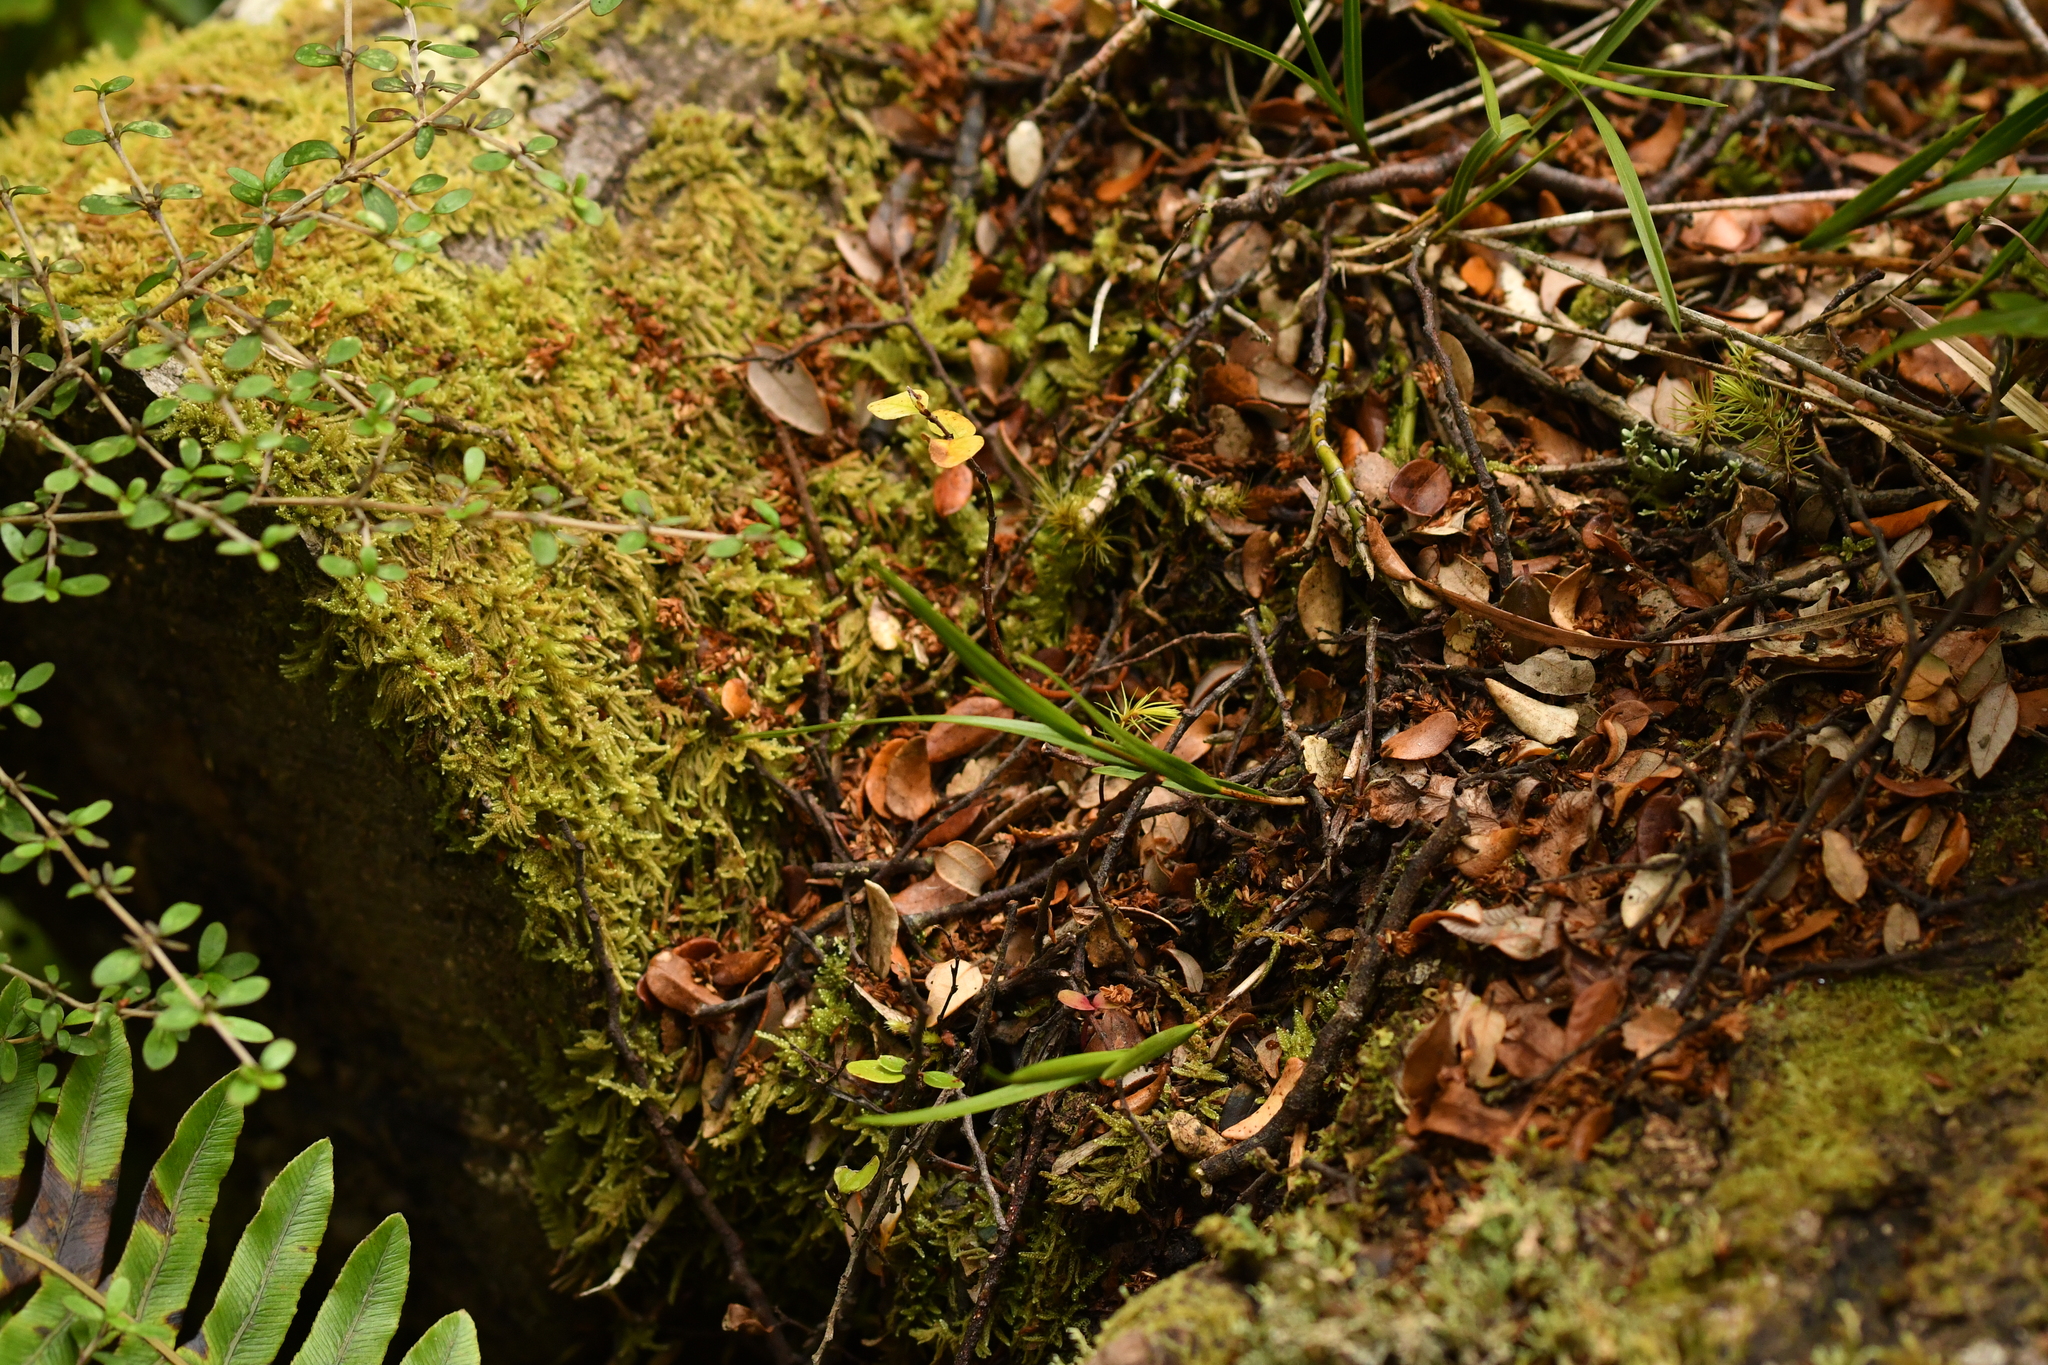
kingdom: Plantae
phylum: Tracheophyta
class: Liliopsida
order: Asparagales
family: Orchidaceae
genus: Earina
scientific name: Earina mucronata
